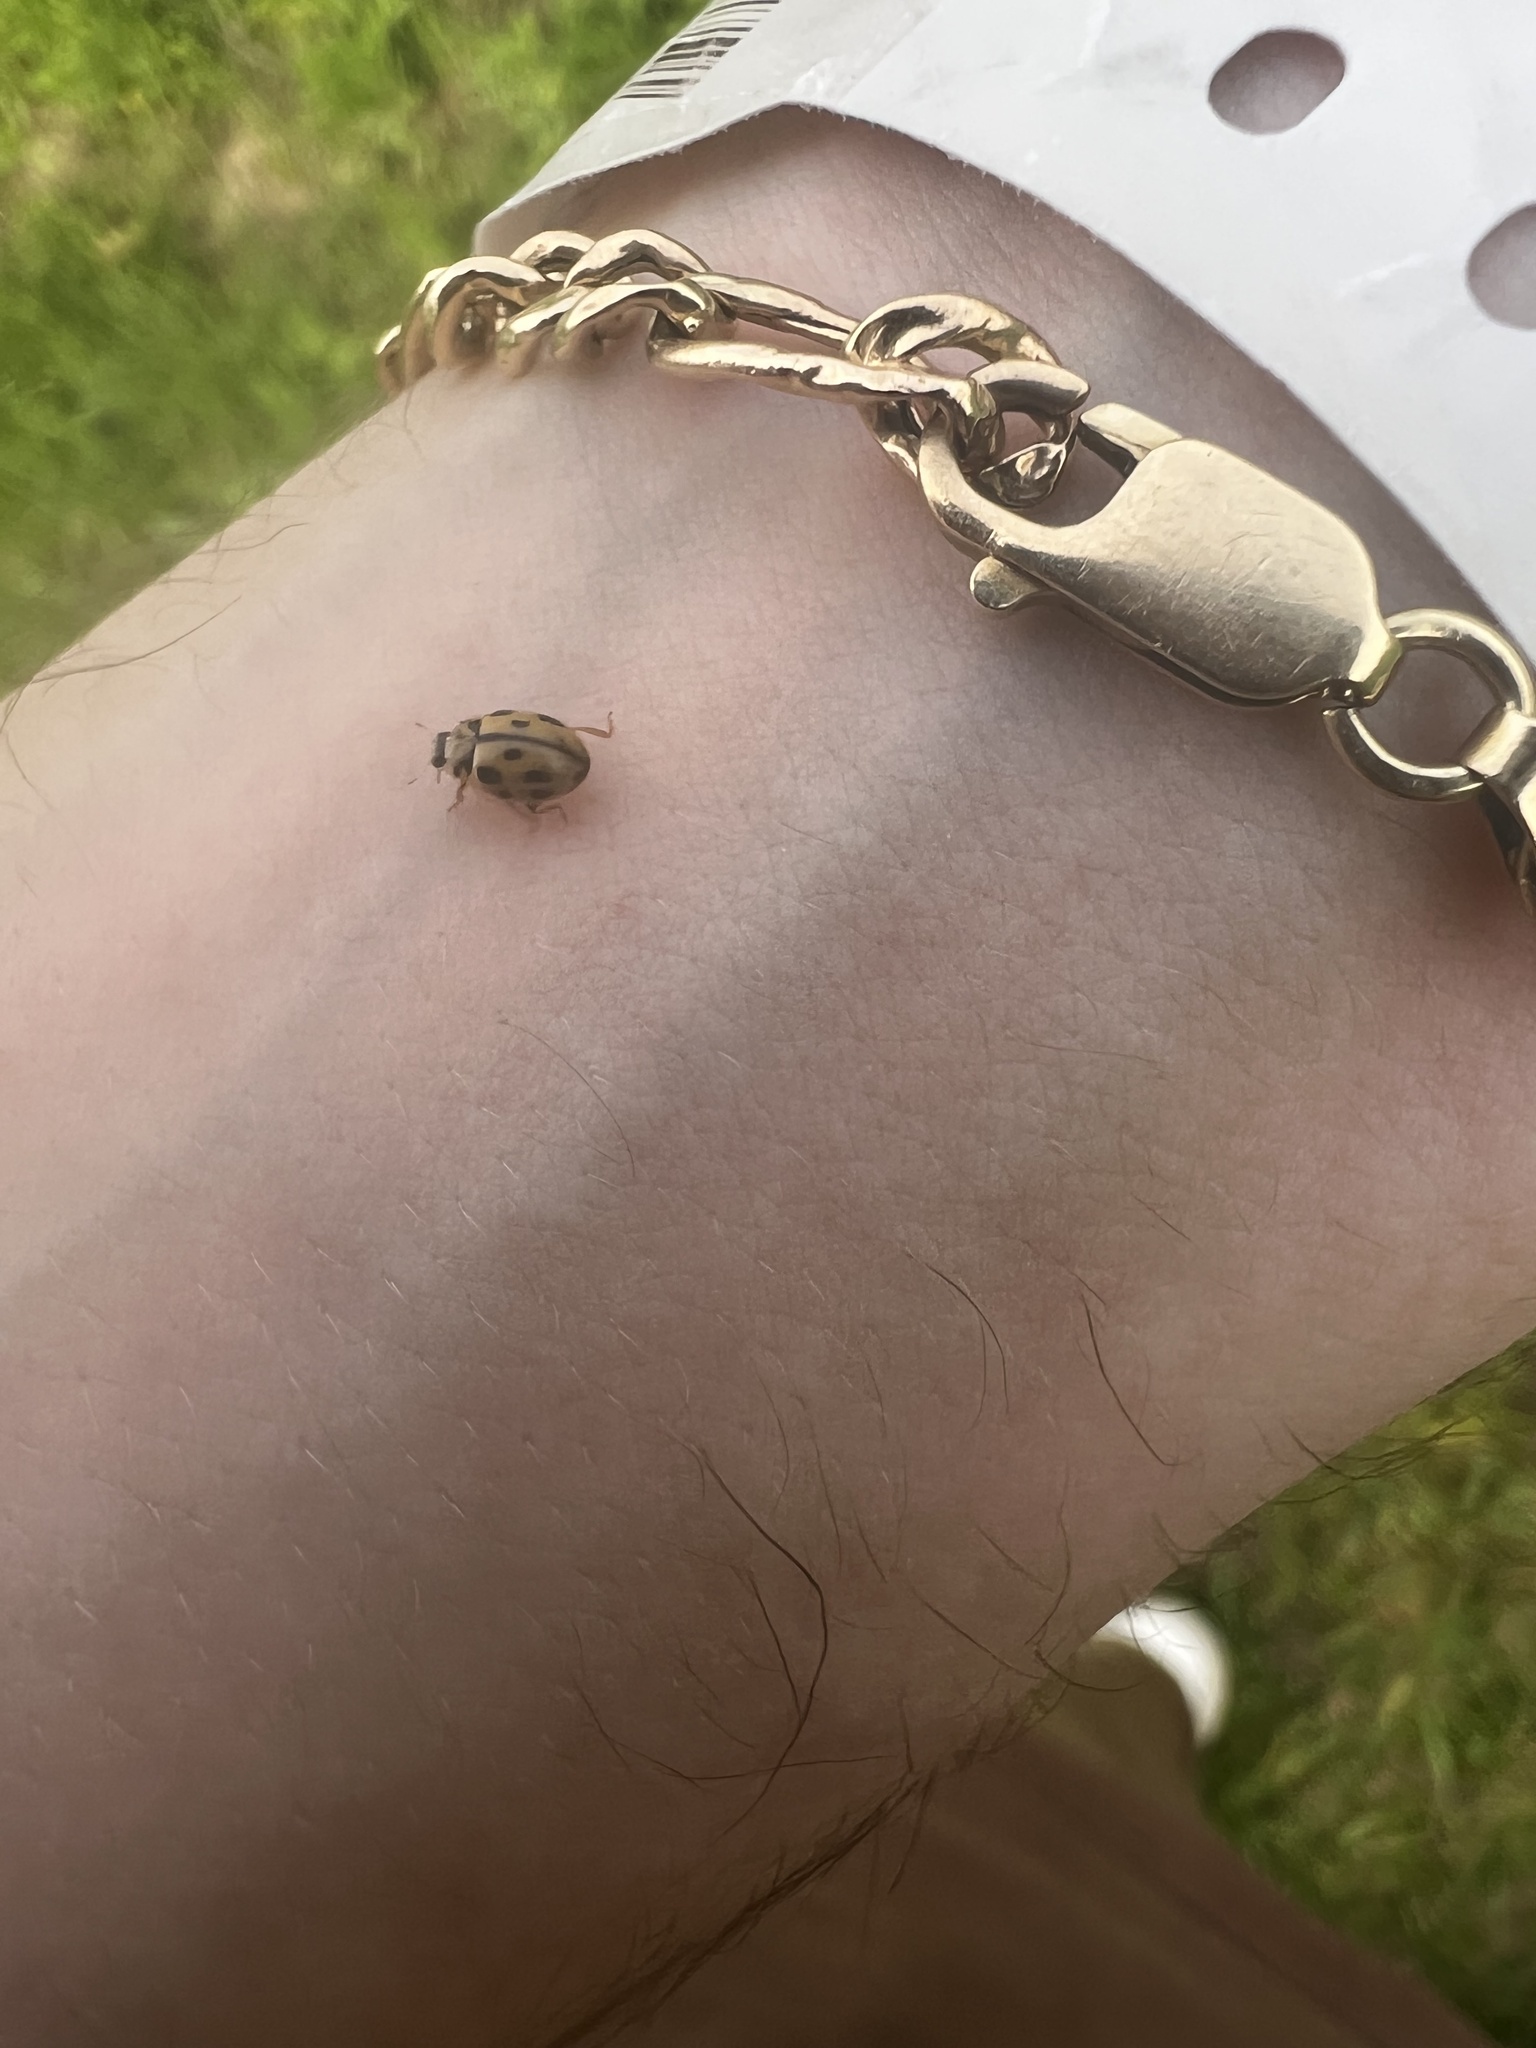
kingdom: Animalia
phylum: Arthropoda
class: Insecta
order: Coleoptera
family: Coccinellidae
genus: Propylaea
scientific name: Propylaea quatuordecimpunctata
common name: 14-spotted ladybird beetle
